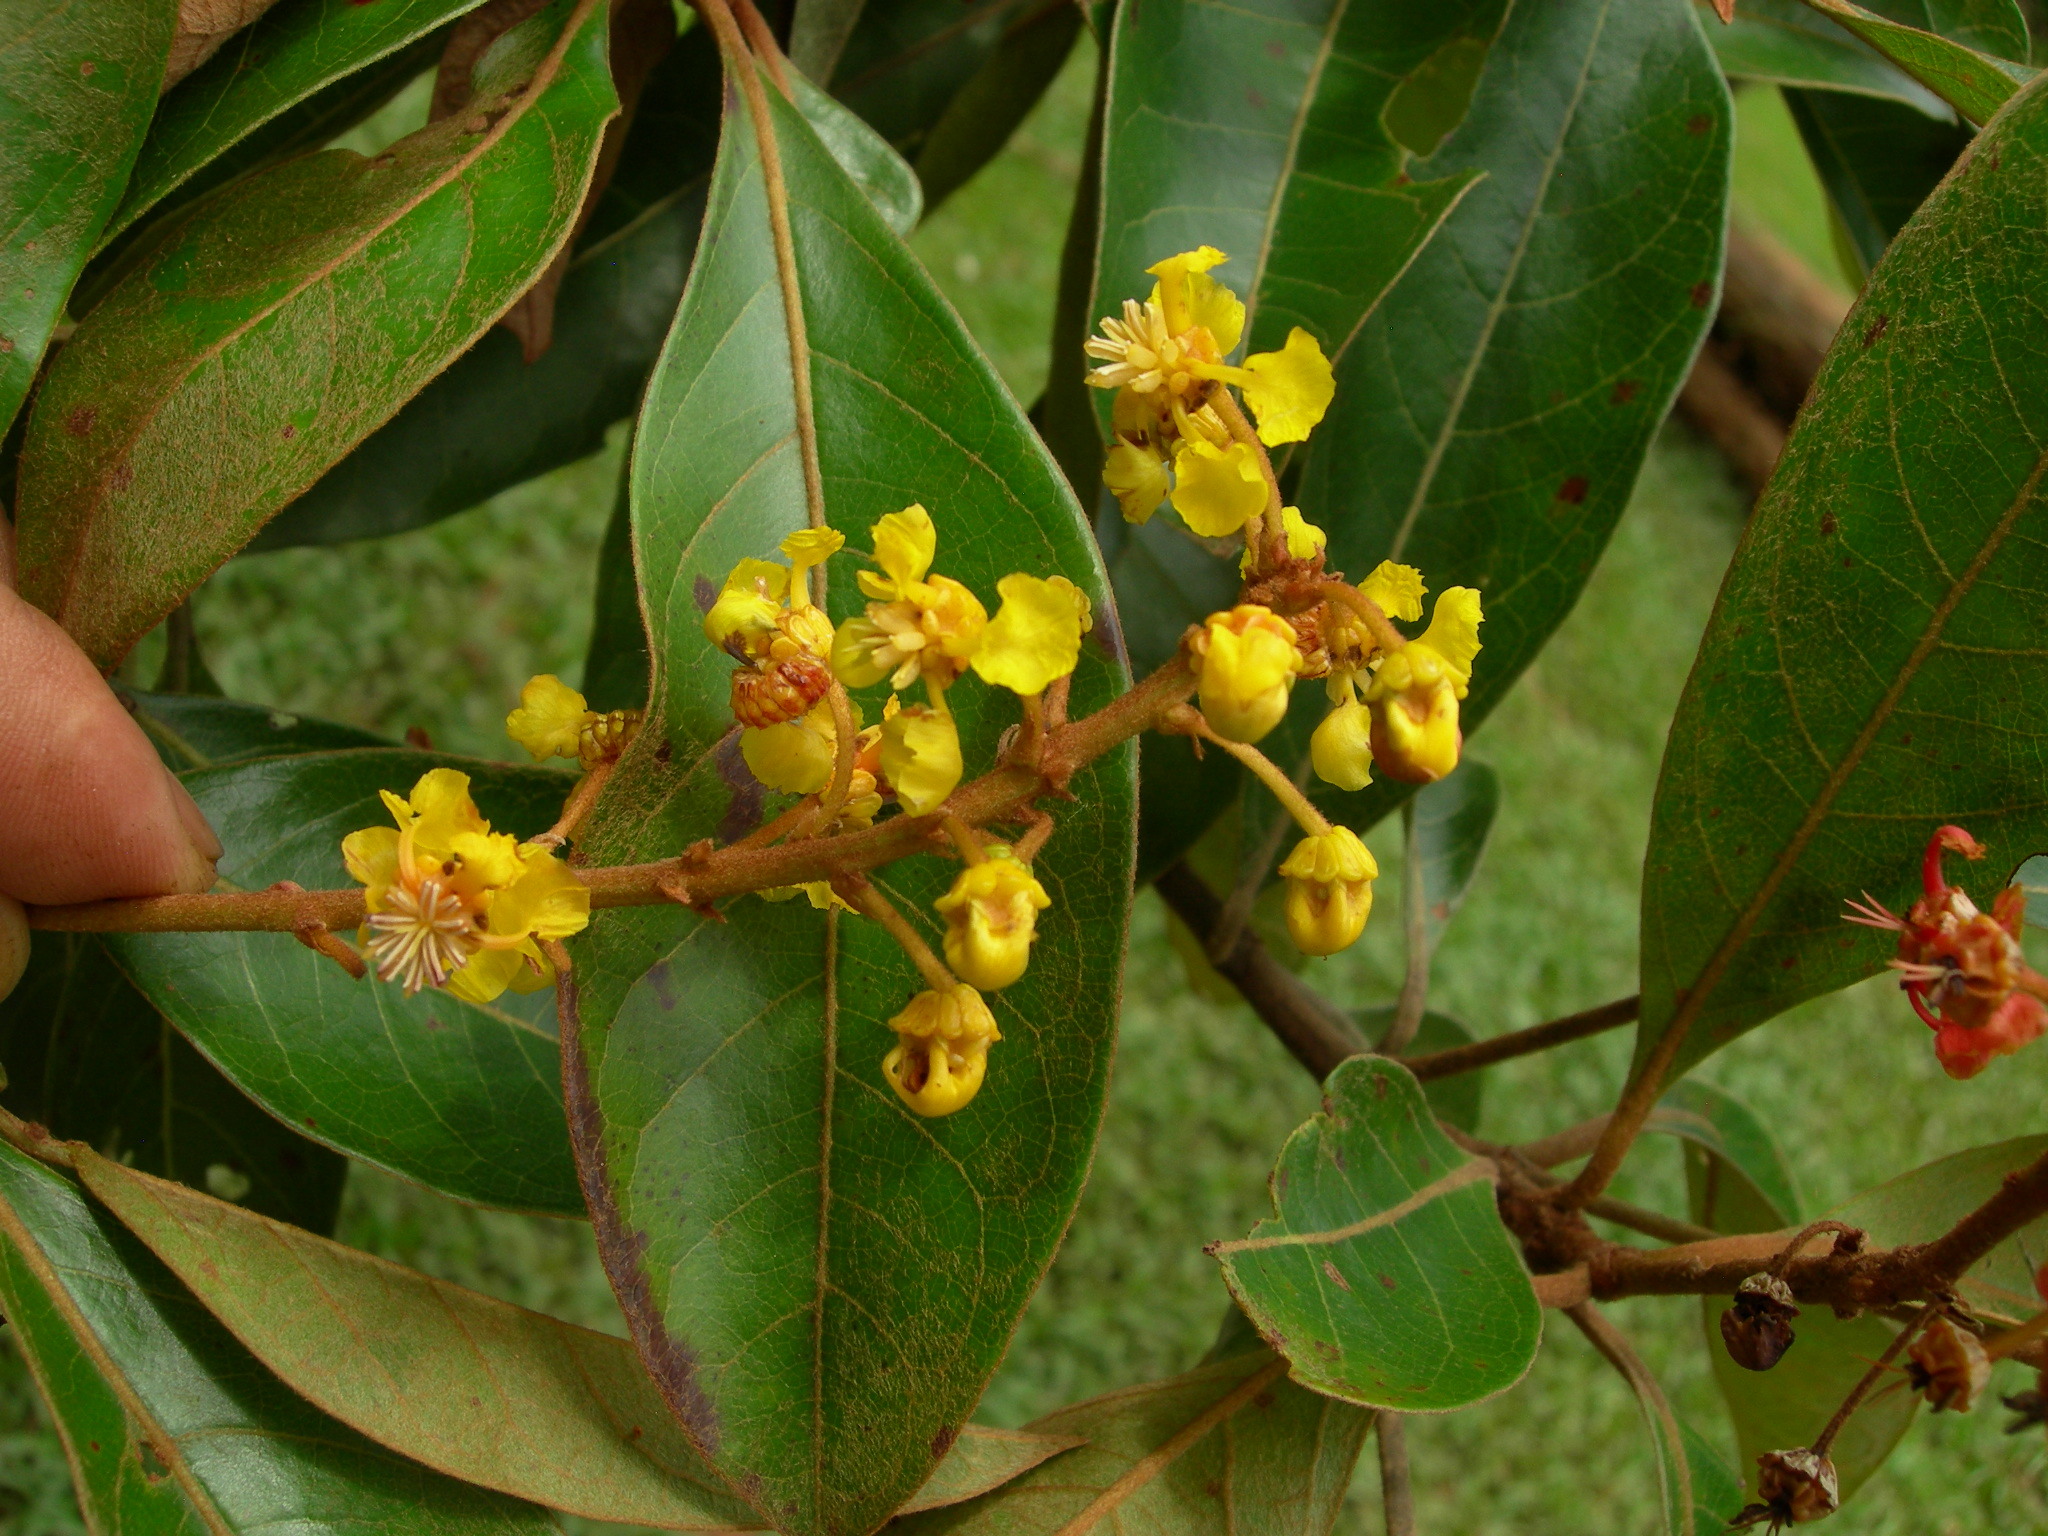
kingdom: Plantae
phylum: Tracheophyta
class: Magnoliopsida
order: Malpighiales
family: Malpighiaceae
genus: Byrsonima
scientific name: Byrsonima crassifolia
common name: Golden spoon
